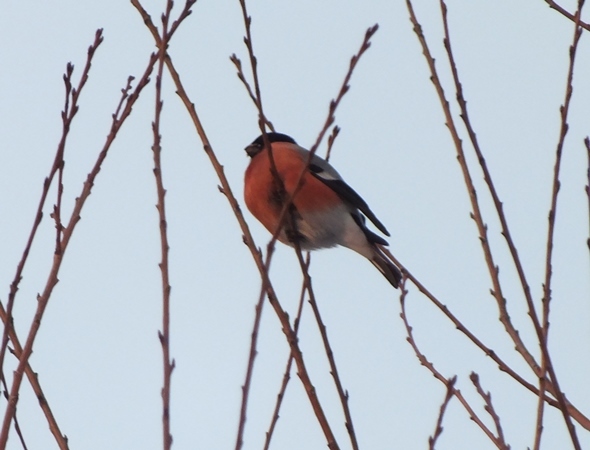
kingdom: Animalia
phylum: Chordata
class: Aves
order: Passeriformes
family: Fringillidae
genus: Pyrrhula
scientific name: Pyrrhula pyrrhula
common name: Eurasian bullfinch
